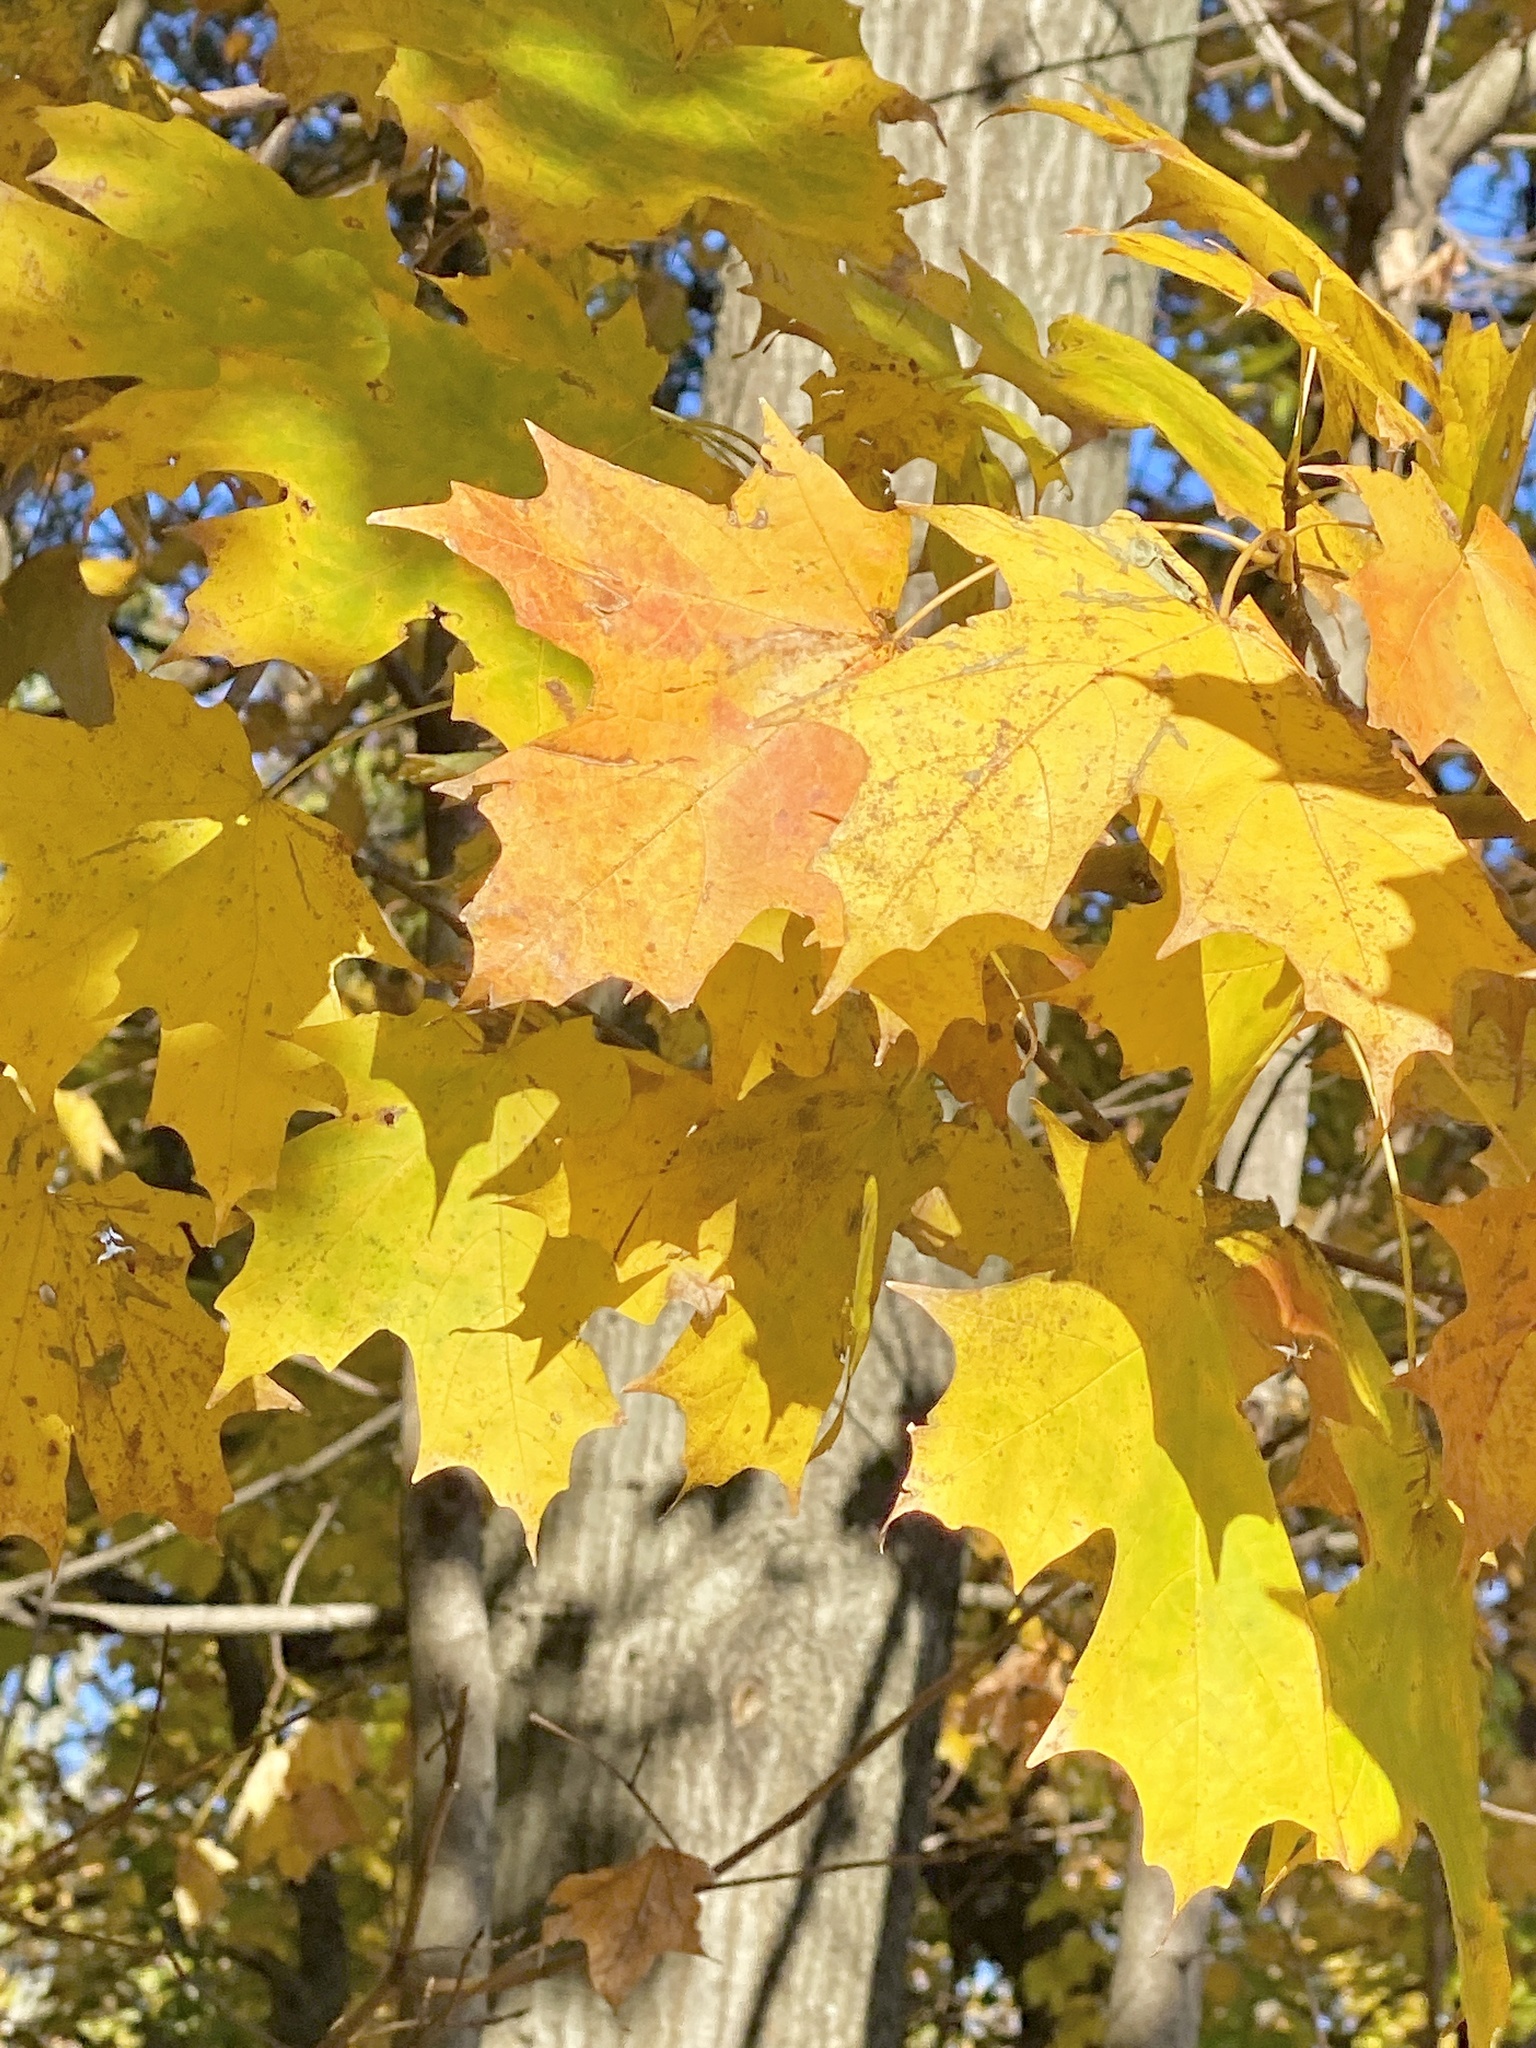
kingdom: Plantae
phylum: Tracheophyta
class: Magnoliopsida
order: Sapindales
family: Sapindaceae
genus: Acer
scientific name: Acer saccharum
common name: Sugar maple
